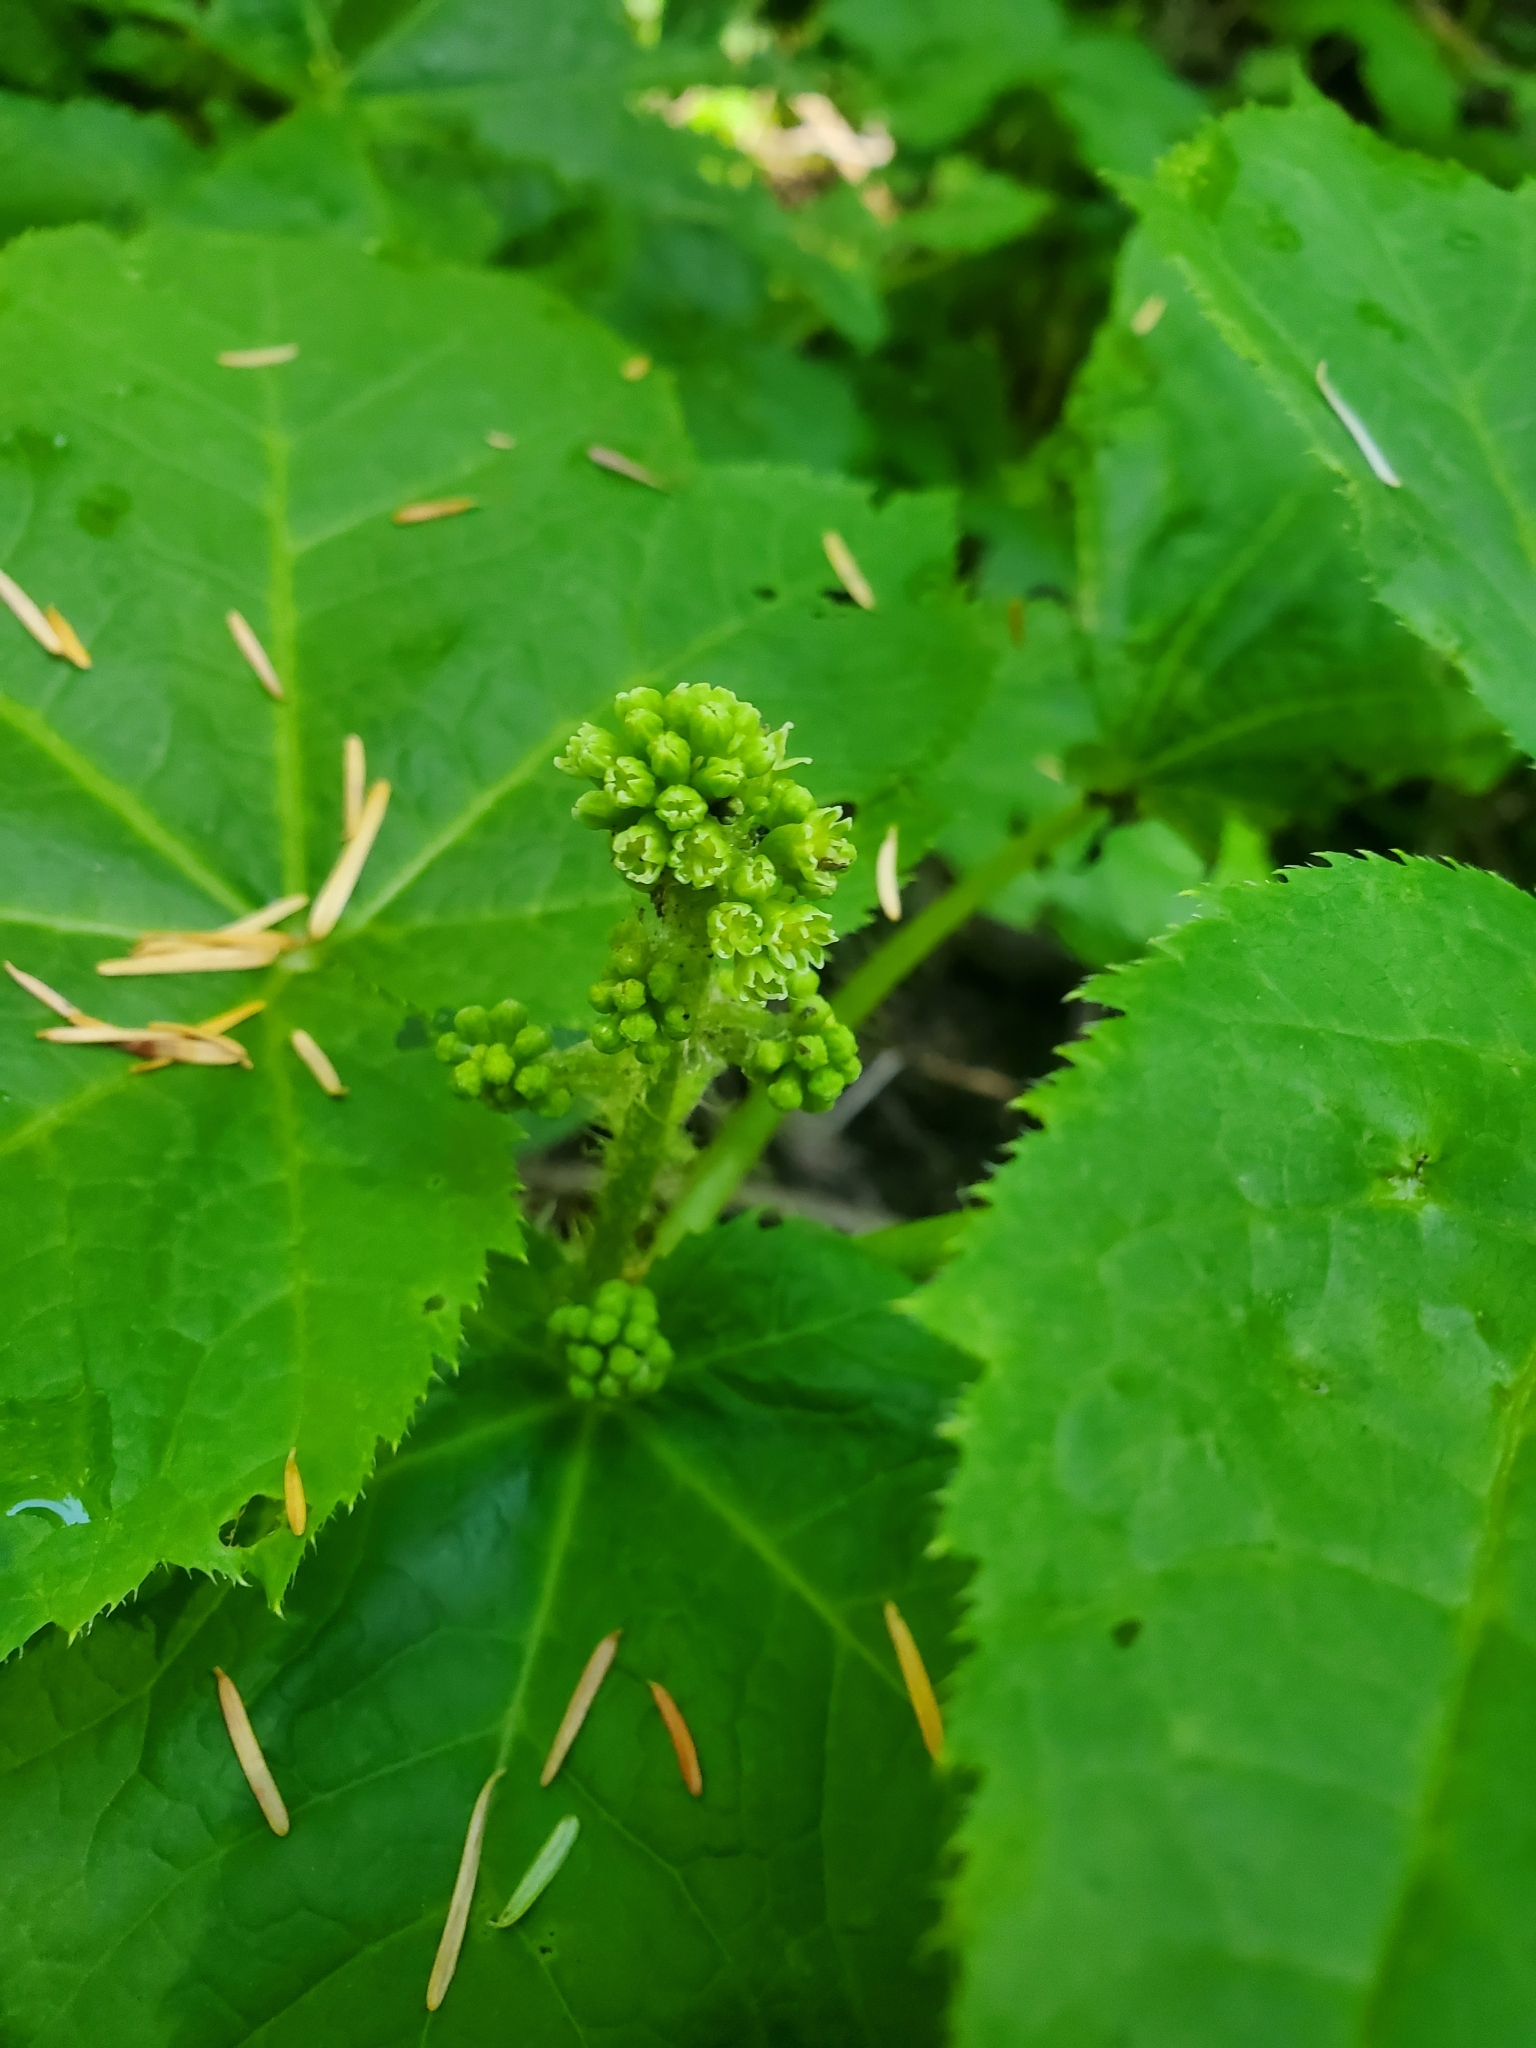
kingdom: Plantae
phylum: Tracheophyta
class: Magnoliopsida
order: Apiales
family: Araliaceae
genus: Oplopanax
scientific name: Oplopanax horridus
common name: Devil's walking-stick
